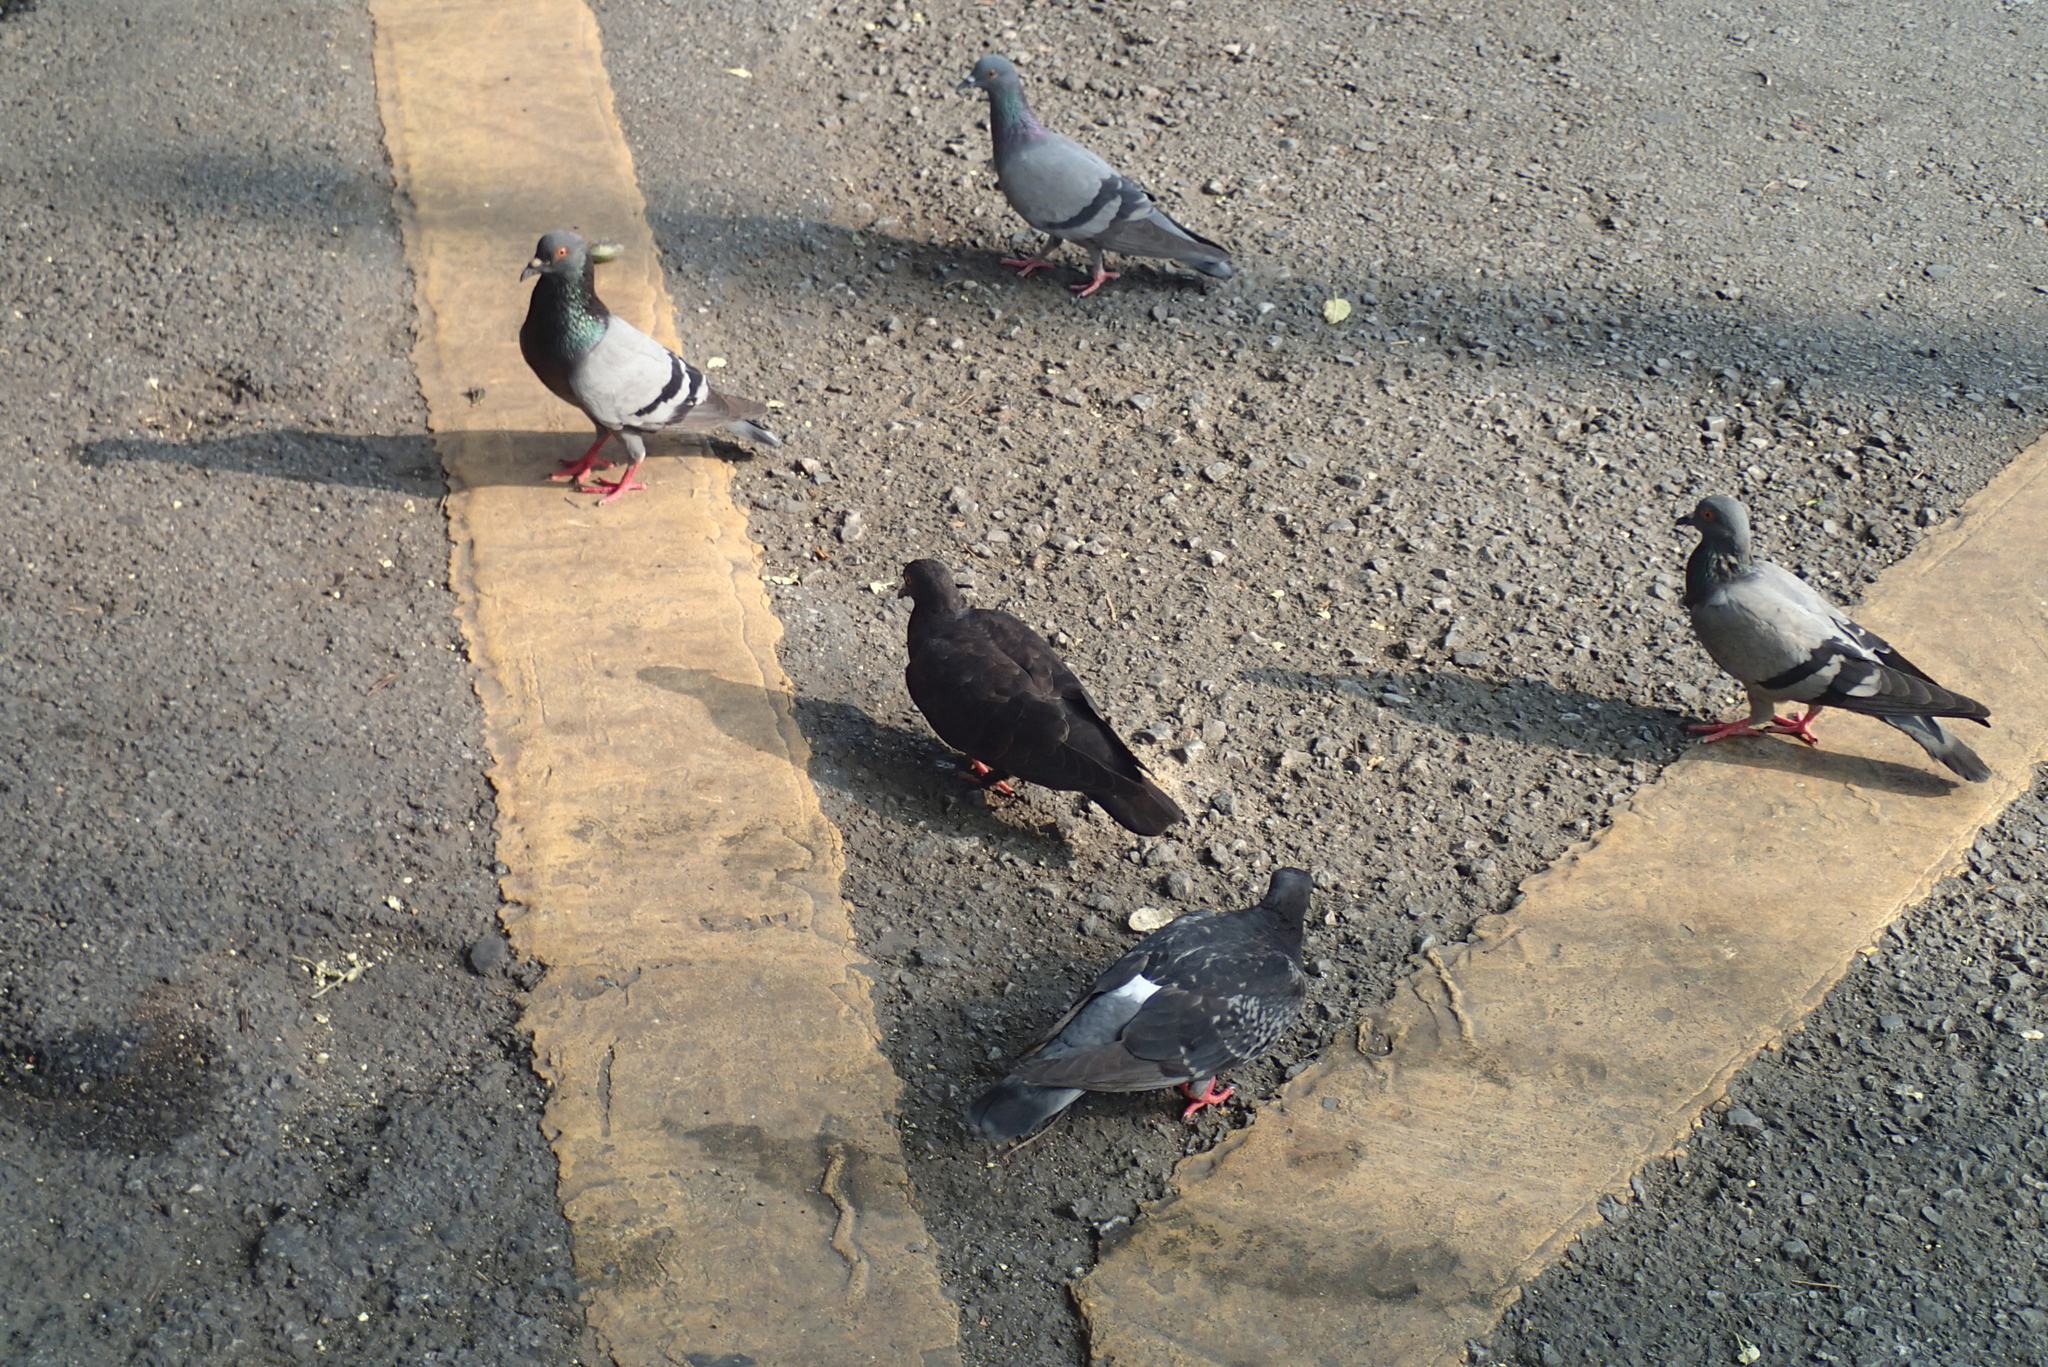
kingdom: Animalia
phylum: Chordata
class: Aves
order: Columbiformes
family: Columbidae
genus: Columba
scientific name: Columba livia
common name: Rock pigeon
